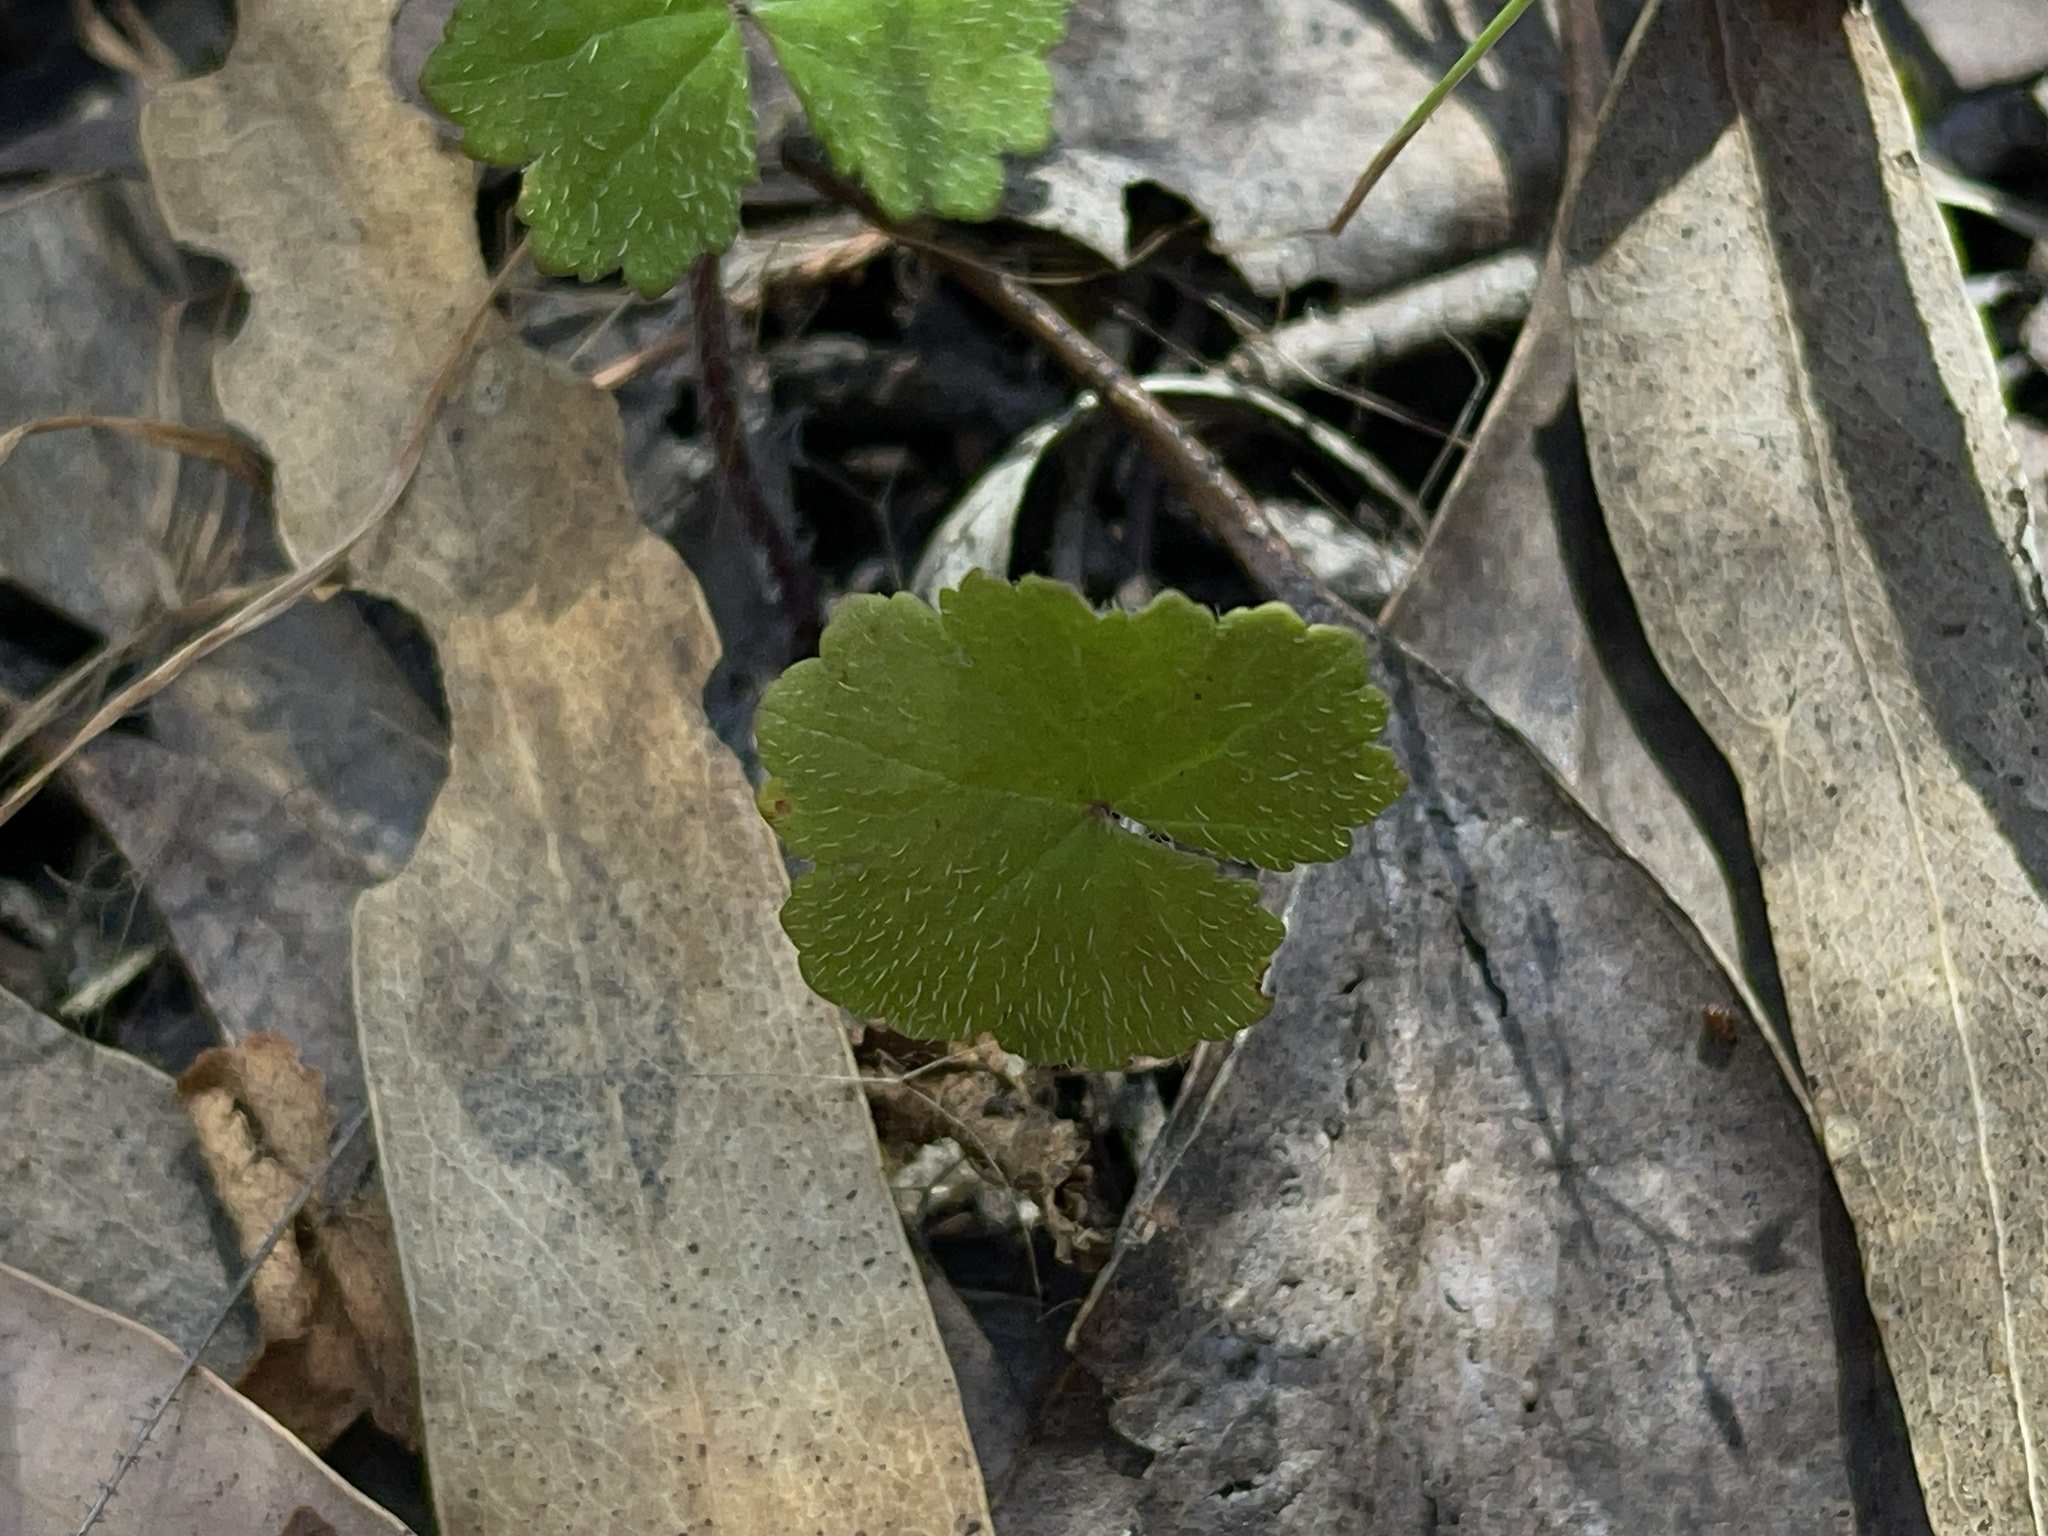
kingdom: Plantae
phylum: Tracheophyta
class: Magnoliopsida
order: Apiales
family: Araliaceae
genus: Hydrocotyle
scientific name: Hydrocotyle laxiflora
